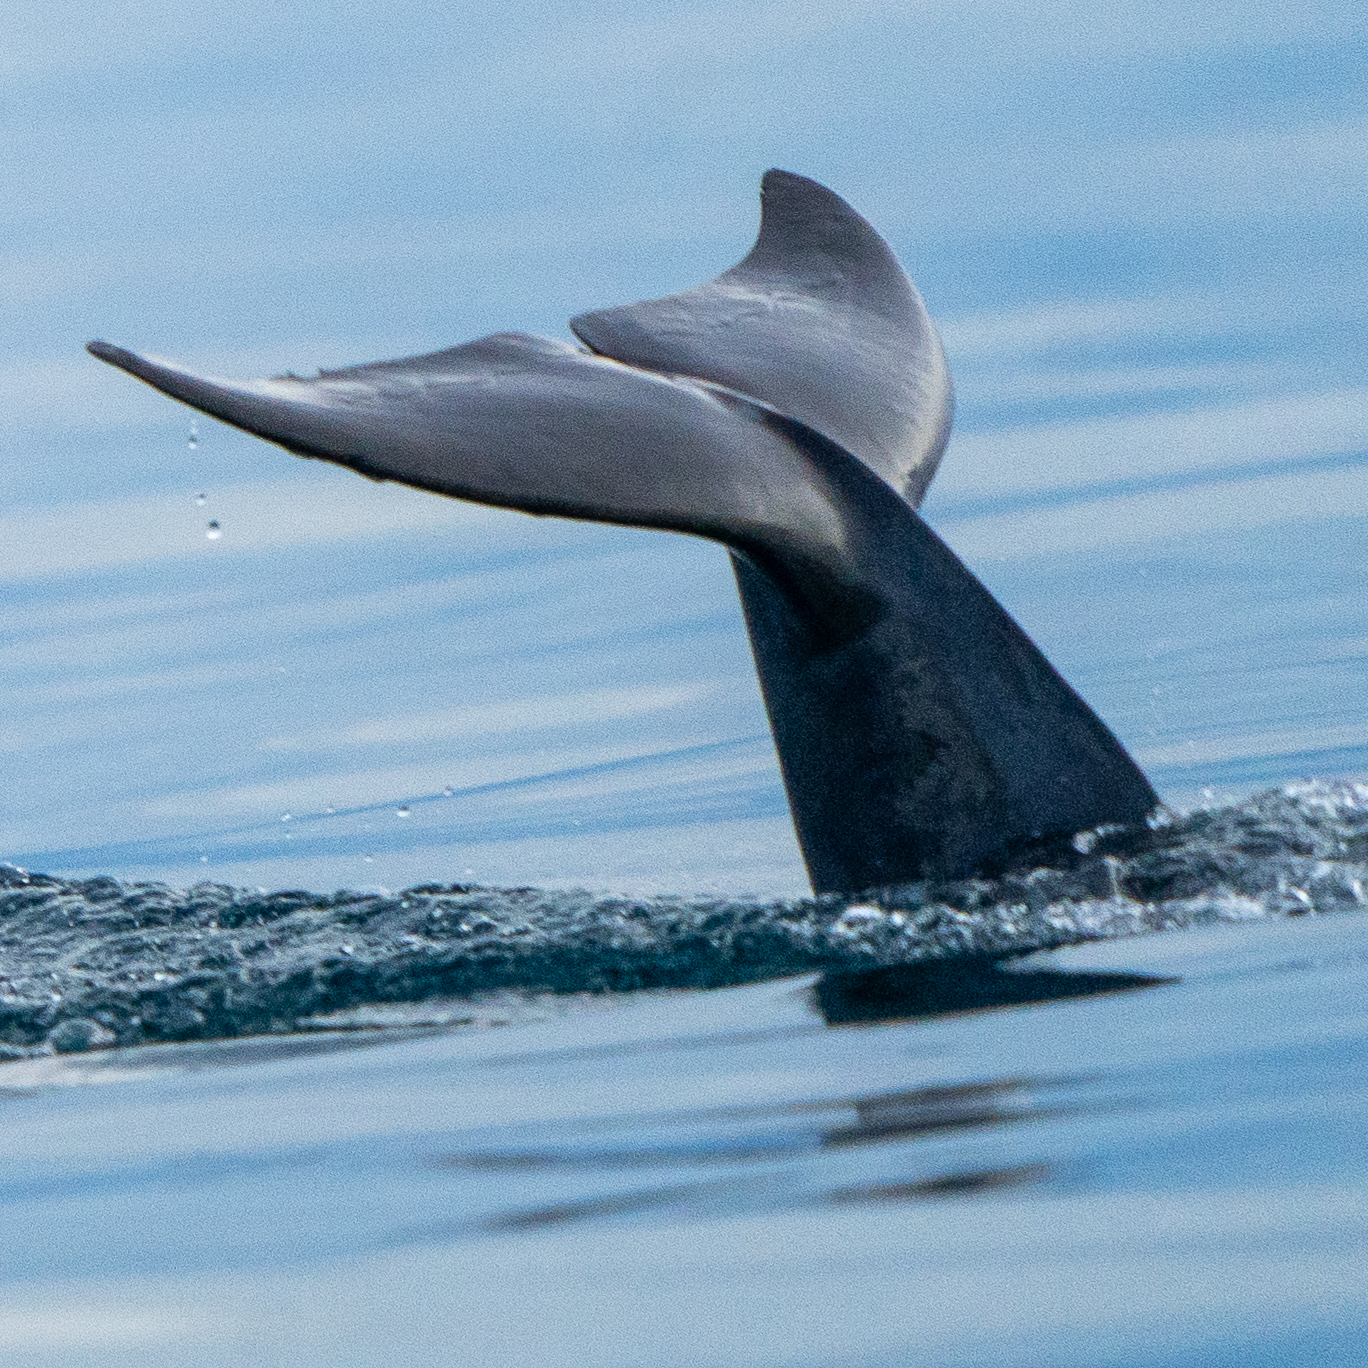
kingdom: Animalia
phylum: Chordata
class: Mammalia
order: Cetacea
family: Delphinidae
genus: Tursiops
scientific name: Tursiops truncatus
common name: Bottlenose dolphin
